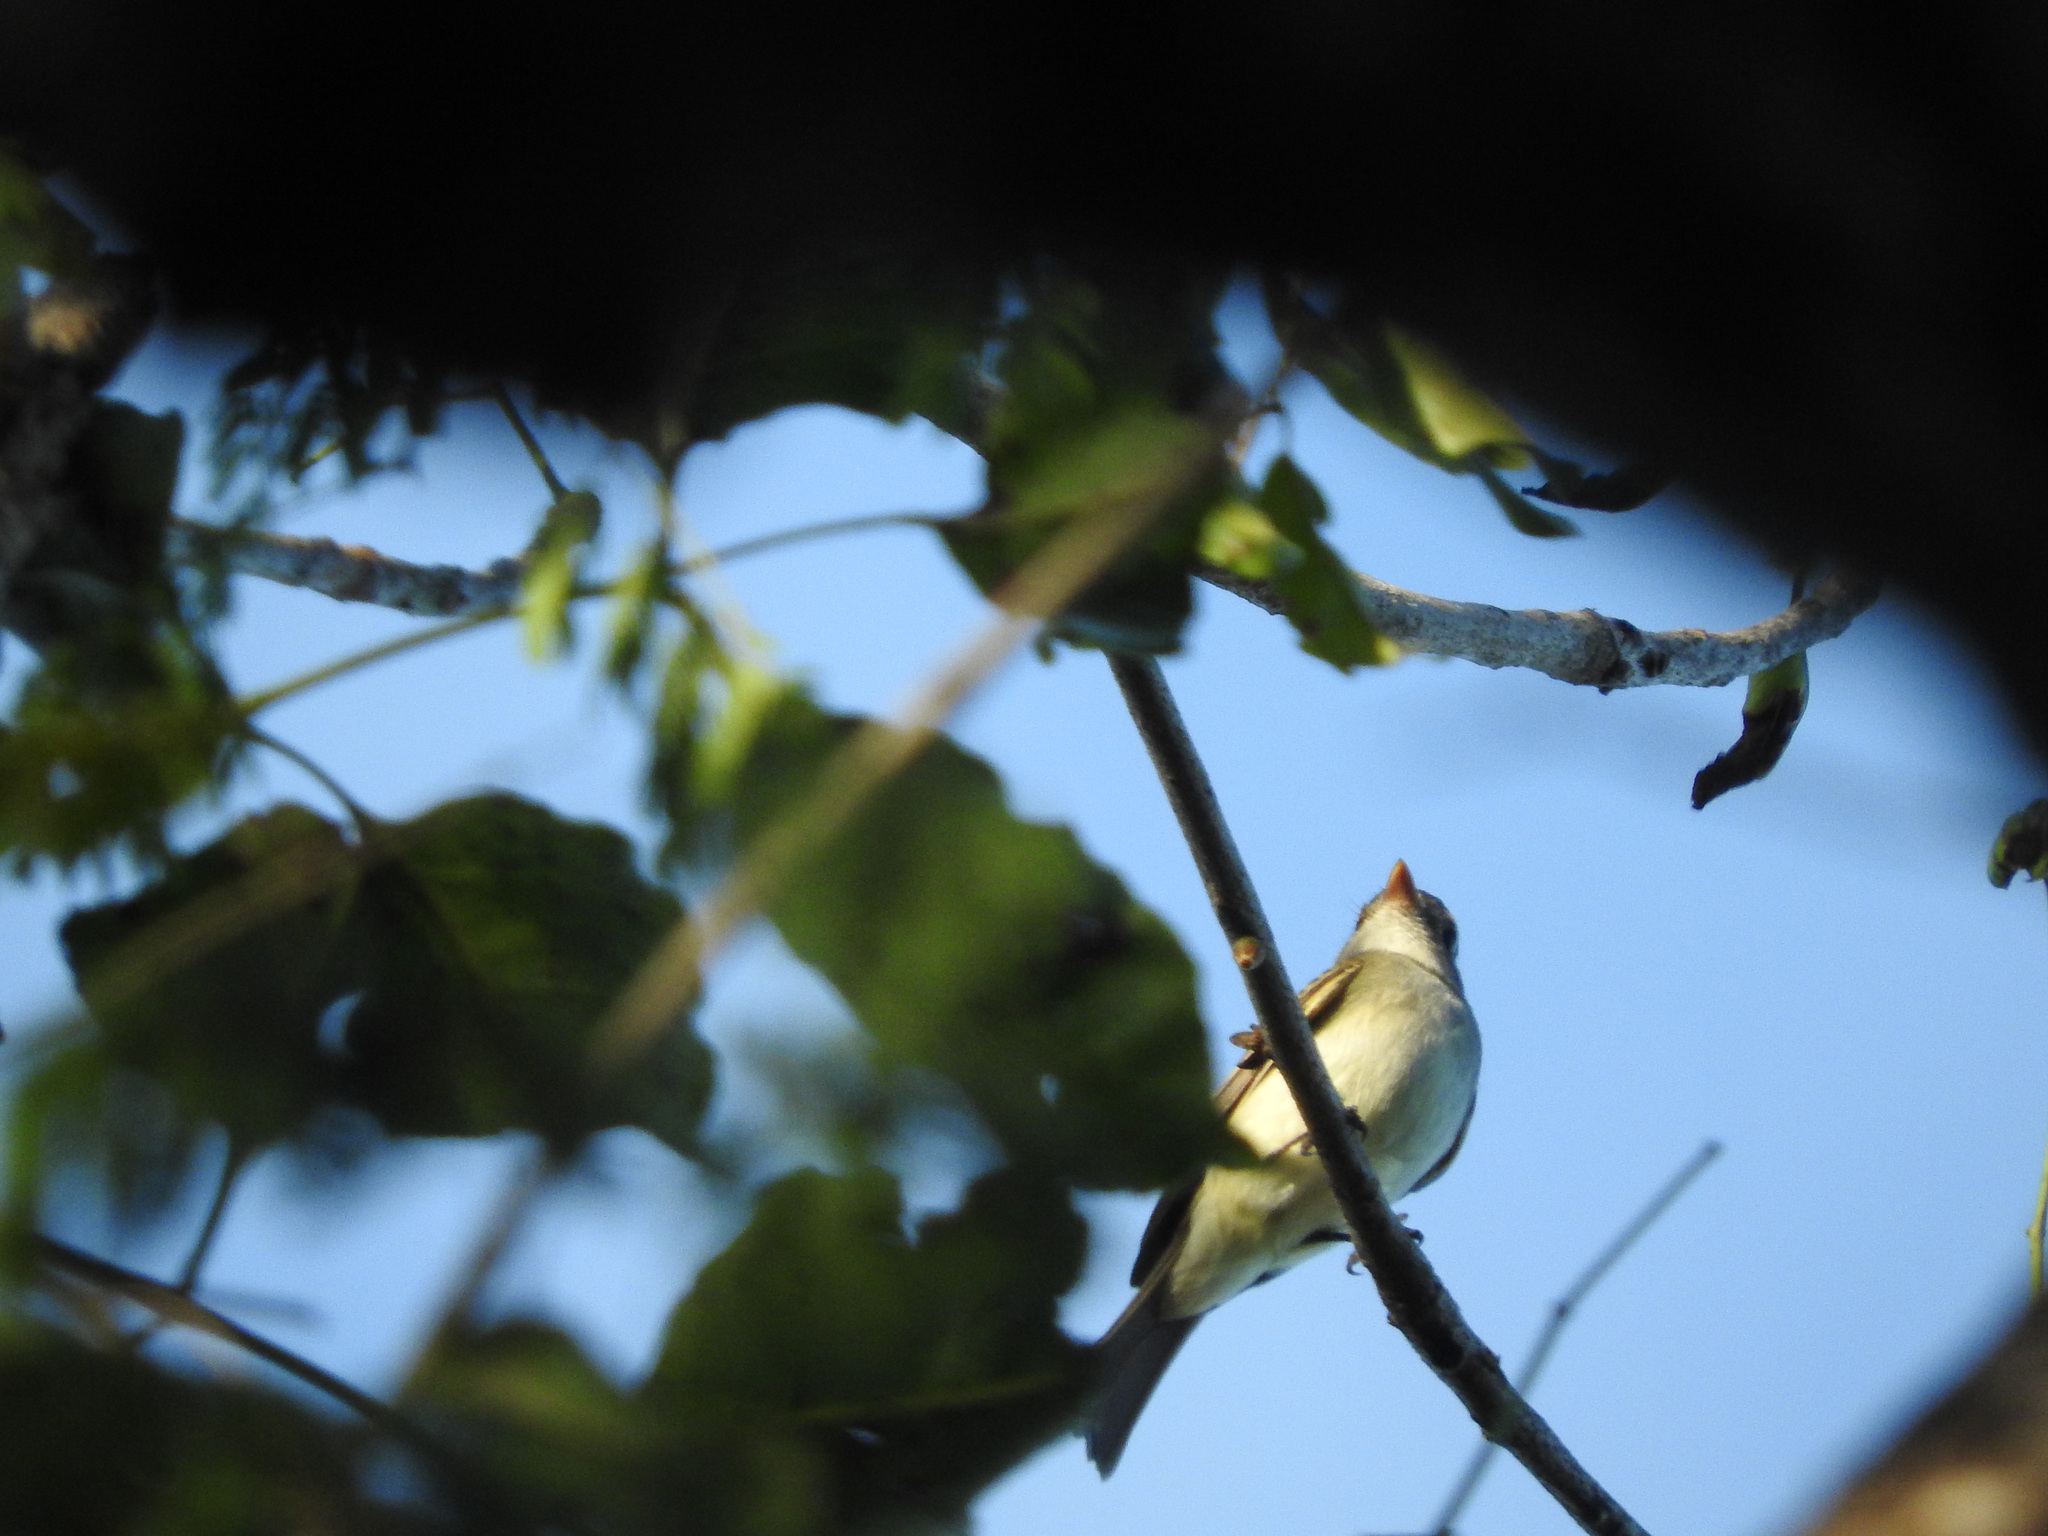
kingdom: Animalia
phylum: Chordata
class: Aves
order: Passeriformes
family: Tyrannidae
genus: Empidonax
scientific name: Empidonax minimus
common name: Least flycatcher
